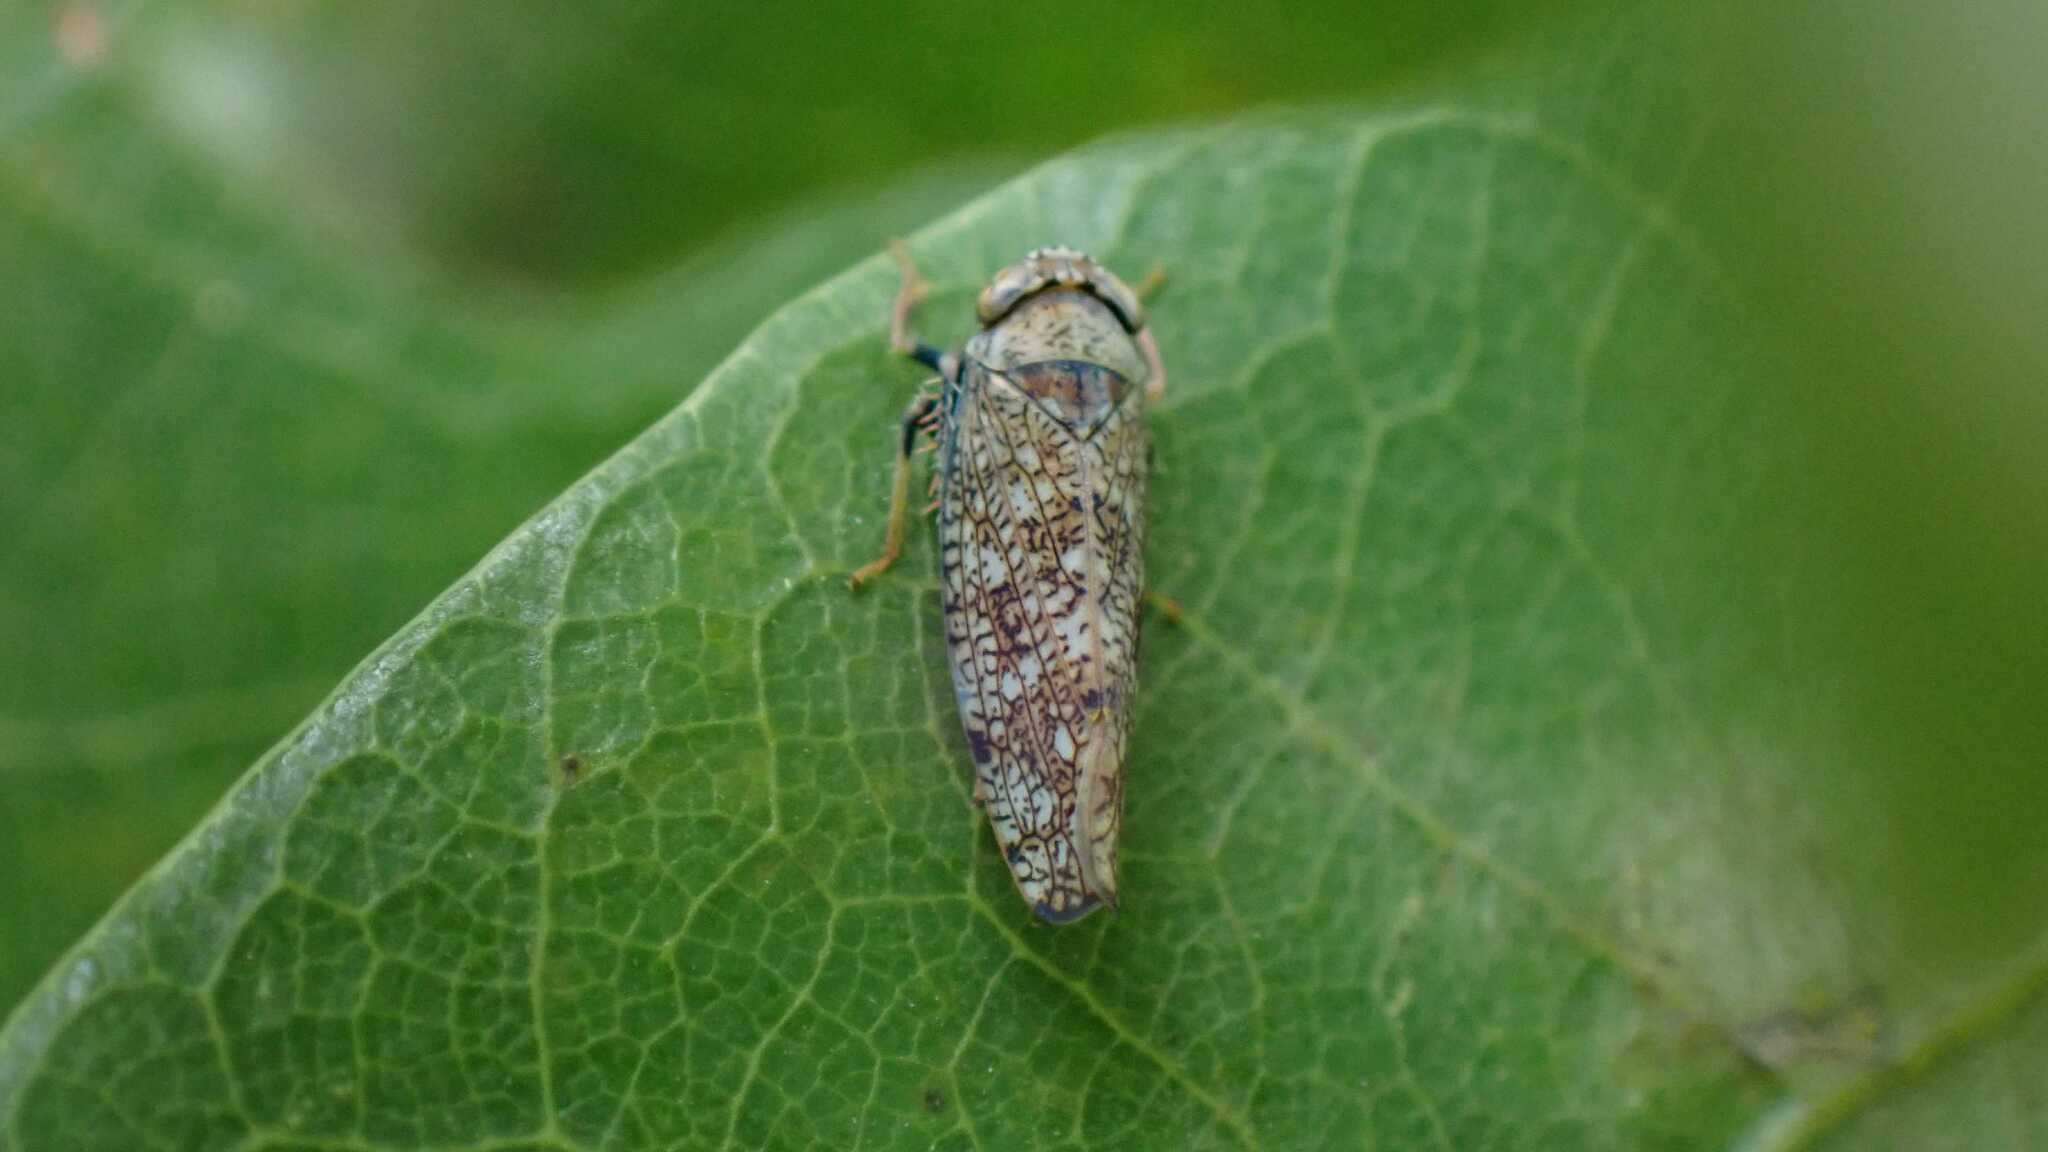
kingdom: Animalia
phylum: Arthropoda
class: Insecta
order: Hemiptera
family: Cicadellidae
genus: Orientus
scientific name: Orientus ishidae
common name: Japanese leafhopper
